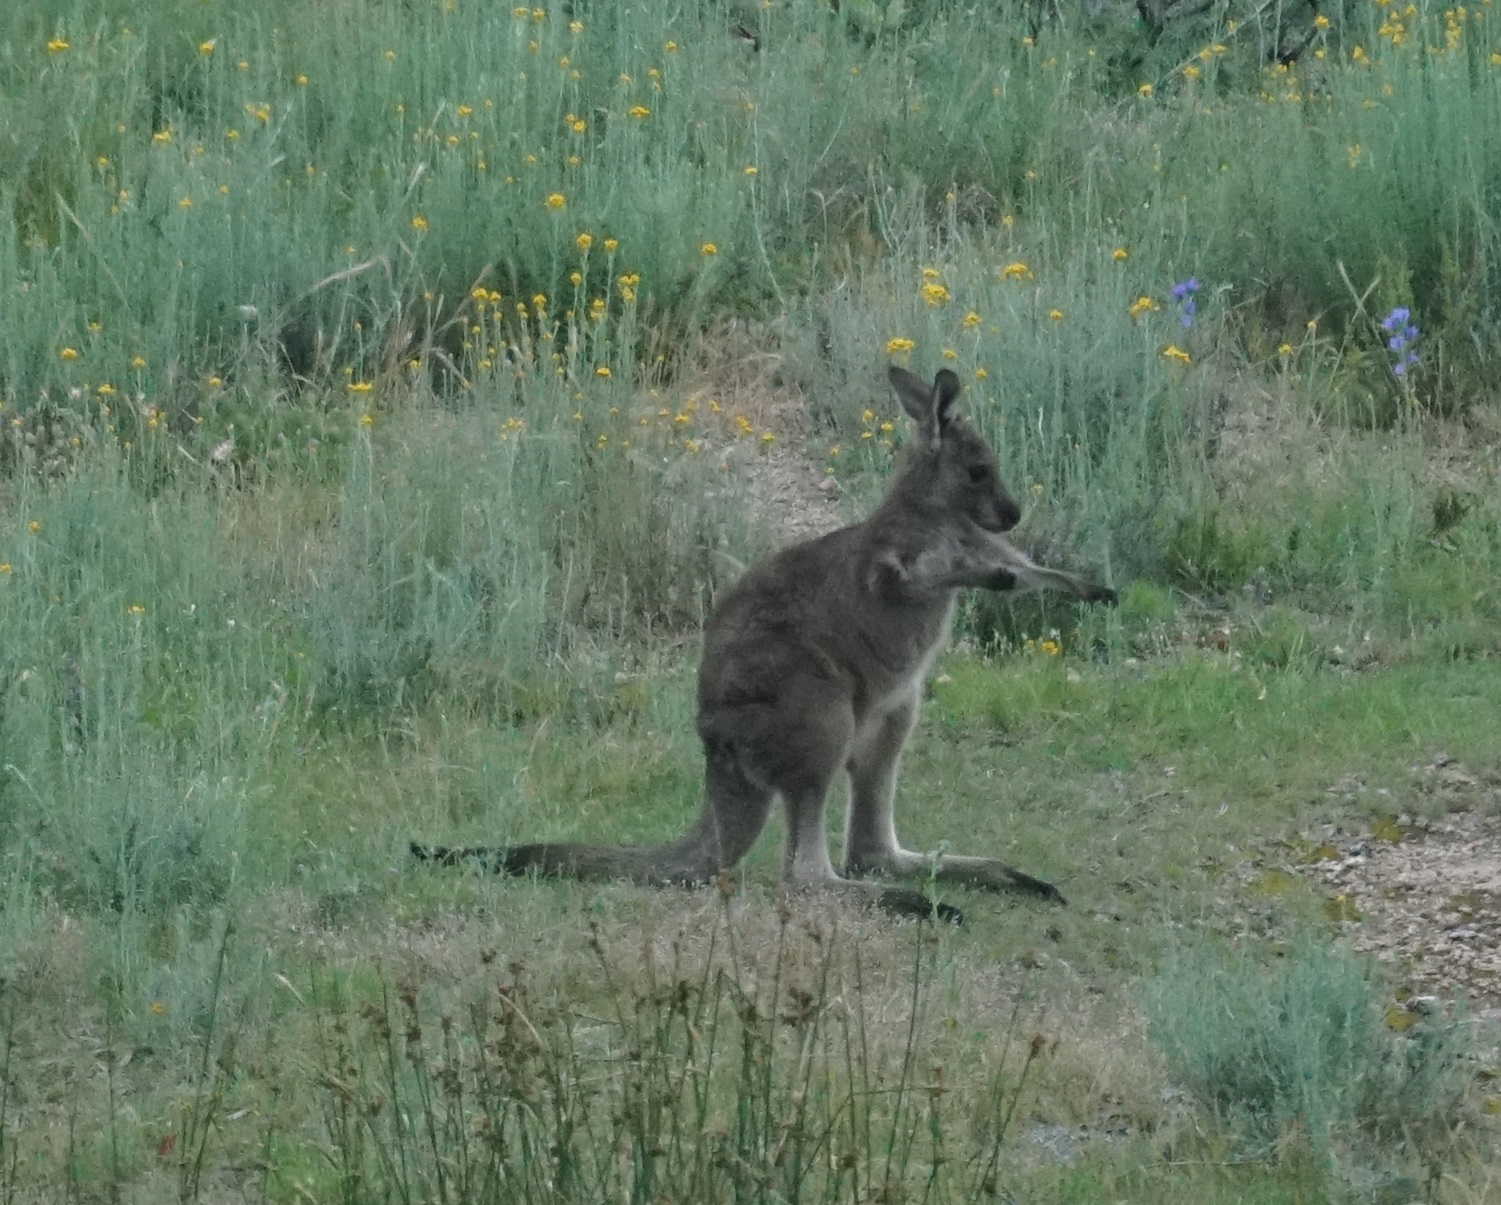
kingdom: Animalia
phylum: Chordata
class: Mammalia
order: Diprotodontia
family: Macropodidae
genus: Macropus
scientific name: Macropus giganteus
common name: Eastern grey kangaroo
